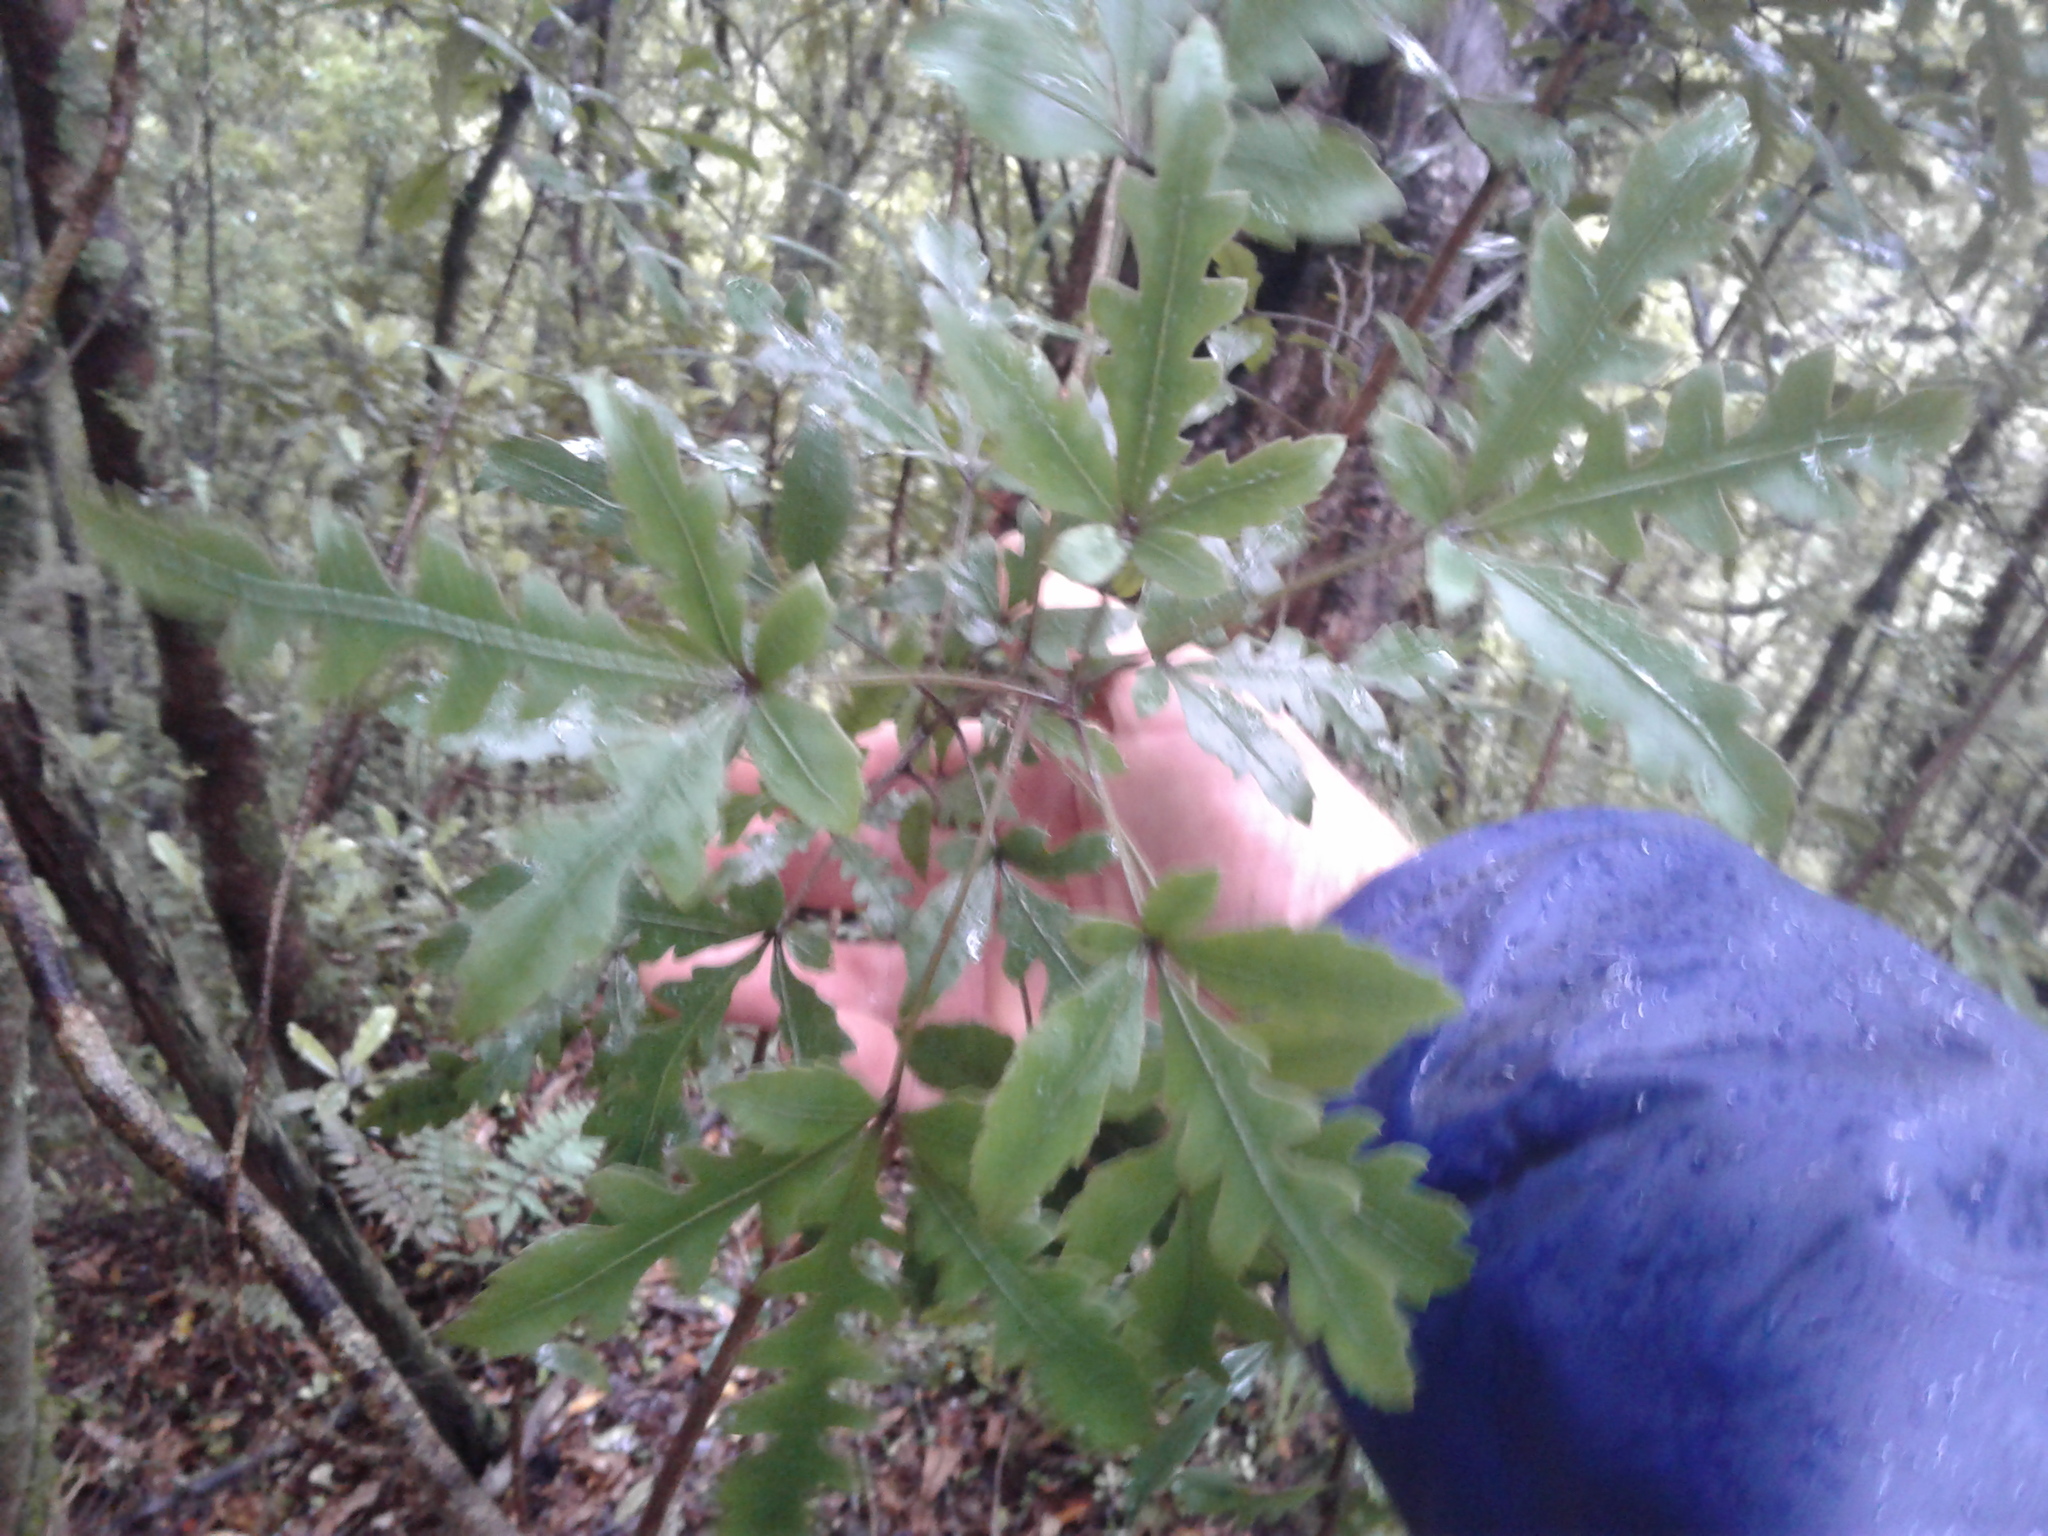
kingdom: Plantae
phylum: Tracheophyta
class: Magnoliopsida
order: Apiales
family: Araliaceae
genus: Raukaua
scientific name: Raukaua simplex
